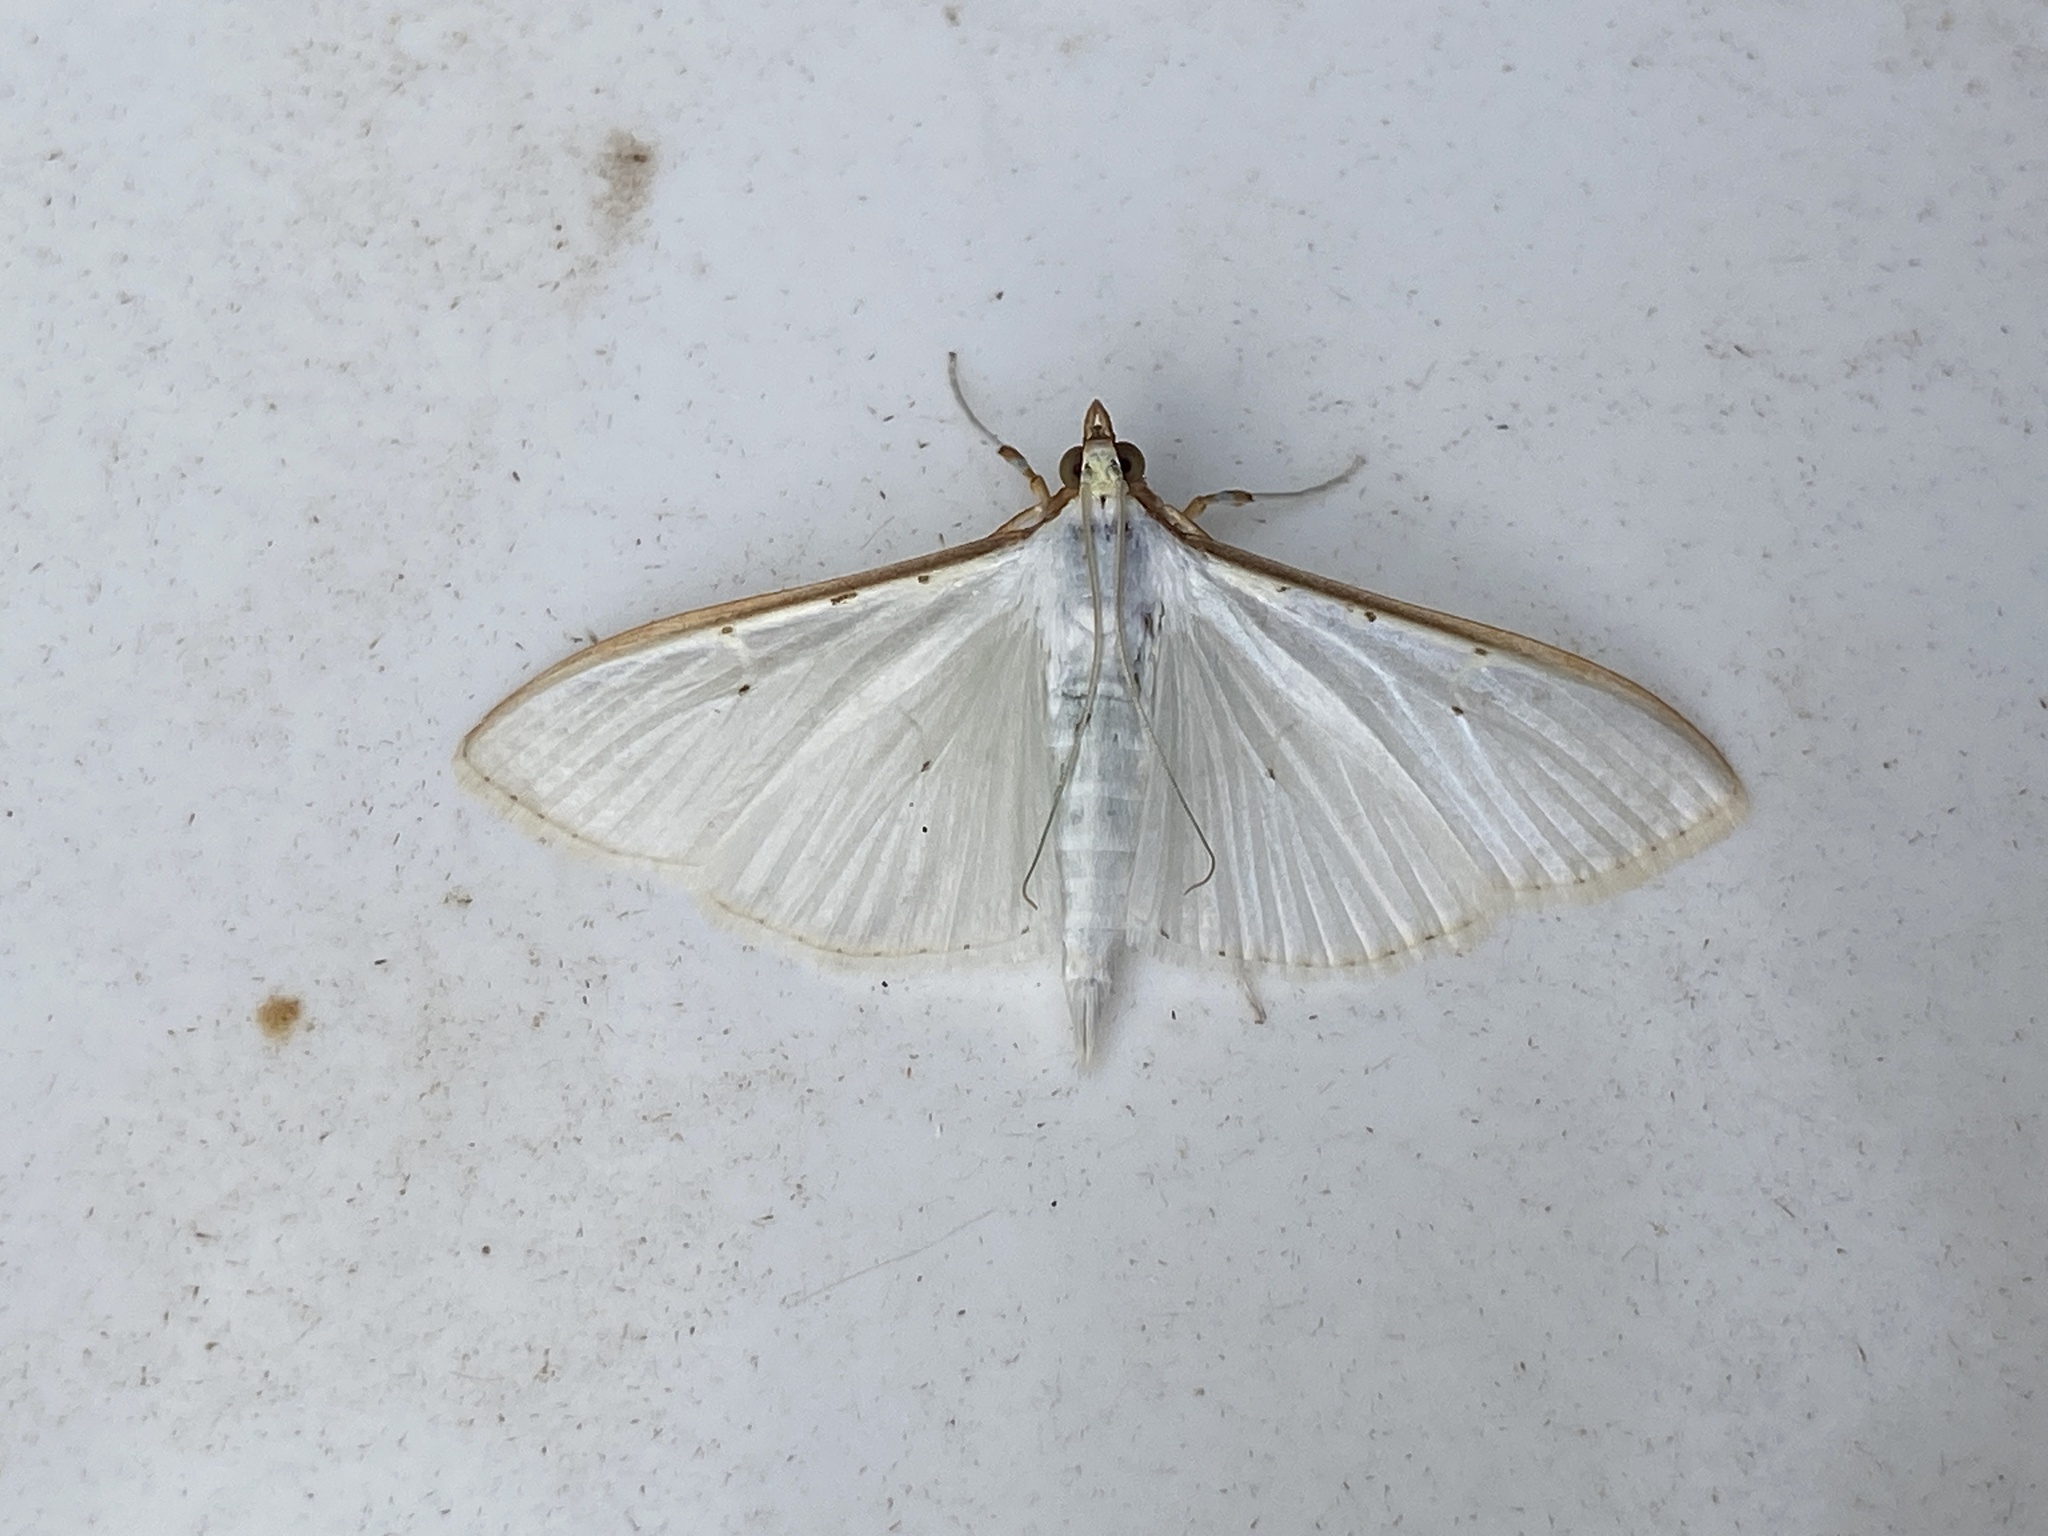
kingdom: Animalia
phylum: Arthropoda
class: Insecta
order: Lepidoptera
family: Crambidae
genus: Palpita
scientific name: Palpita vitrealis
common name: Olive-tree pearl
